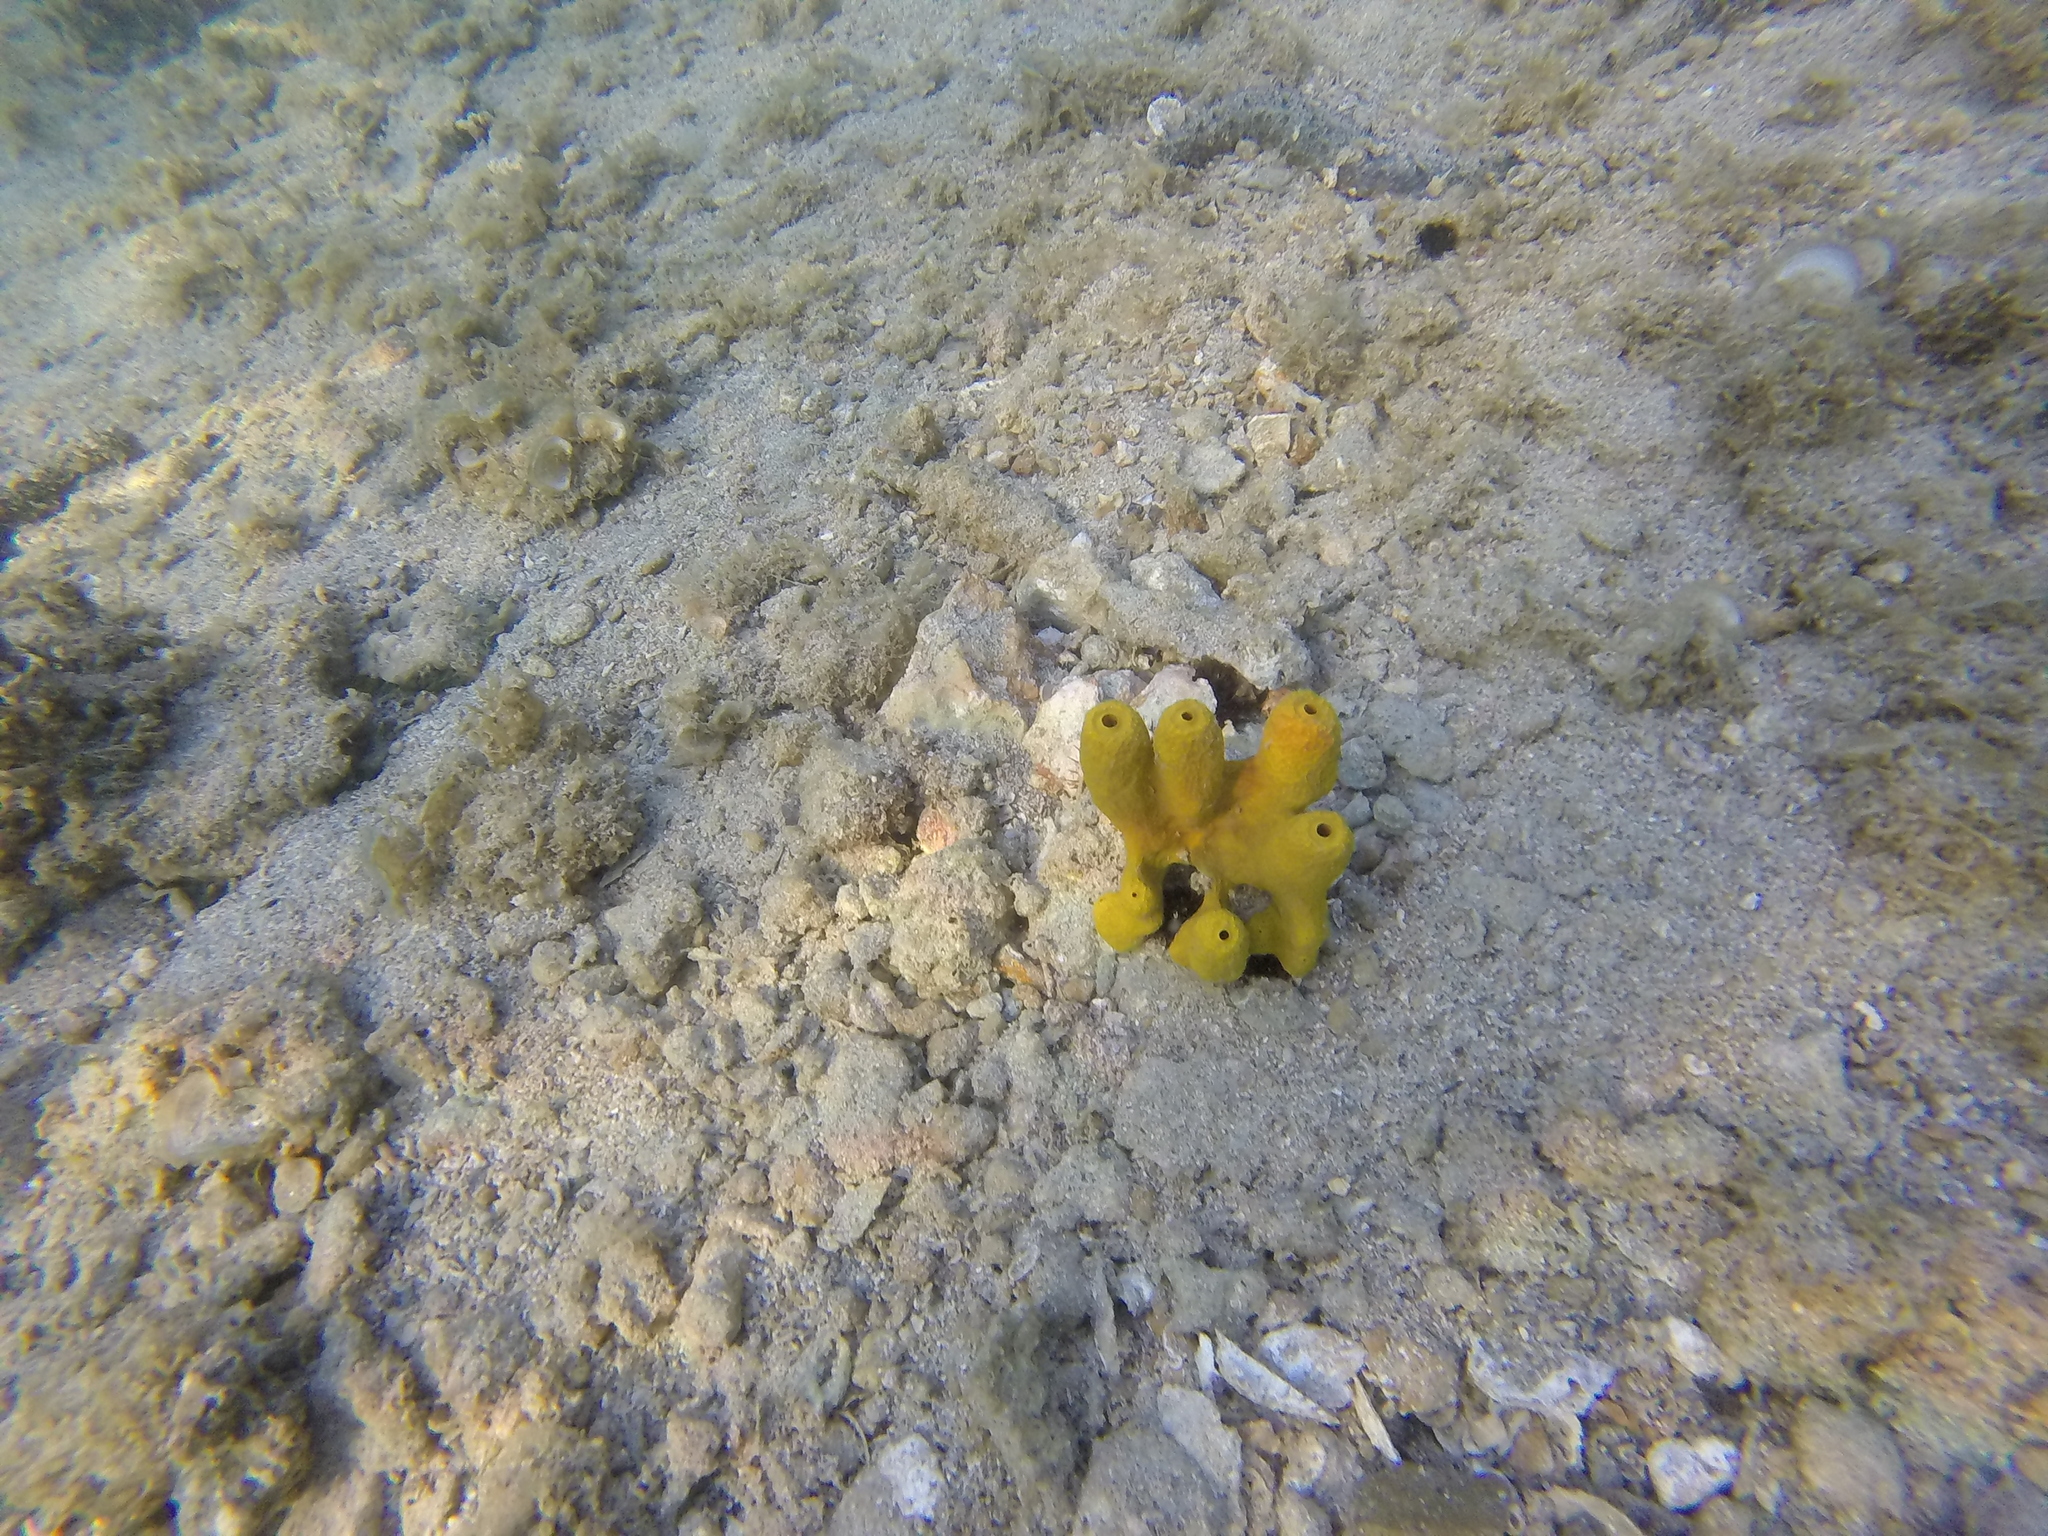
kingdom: Animalia
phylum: Porifera
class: Demospongiae
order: Verongiida
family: Aplysinidae
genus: Aplysina
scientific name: Aplysina aerophoba
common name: Aureate sponge
